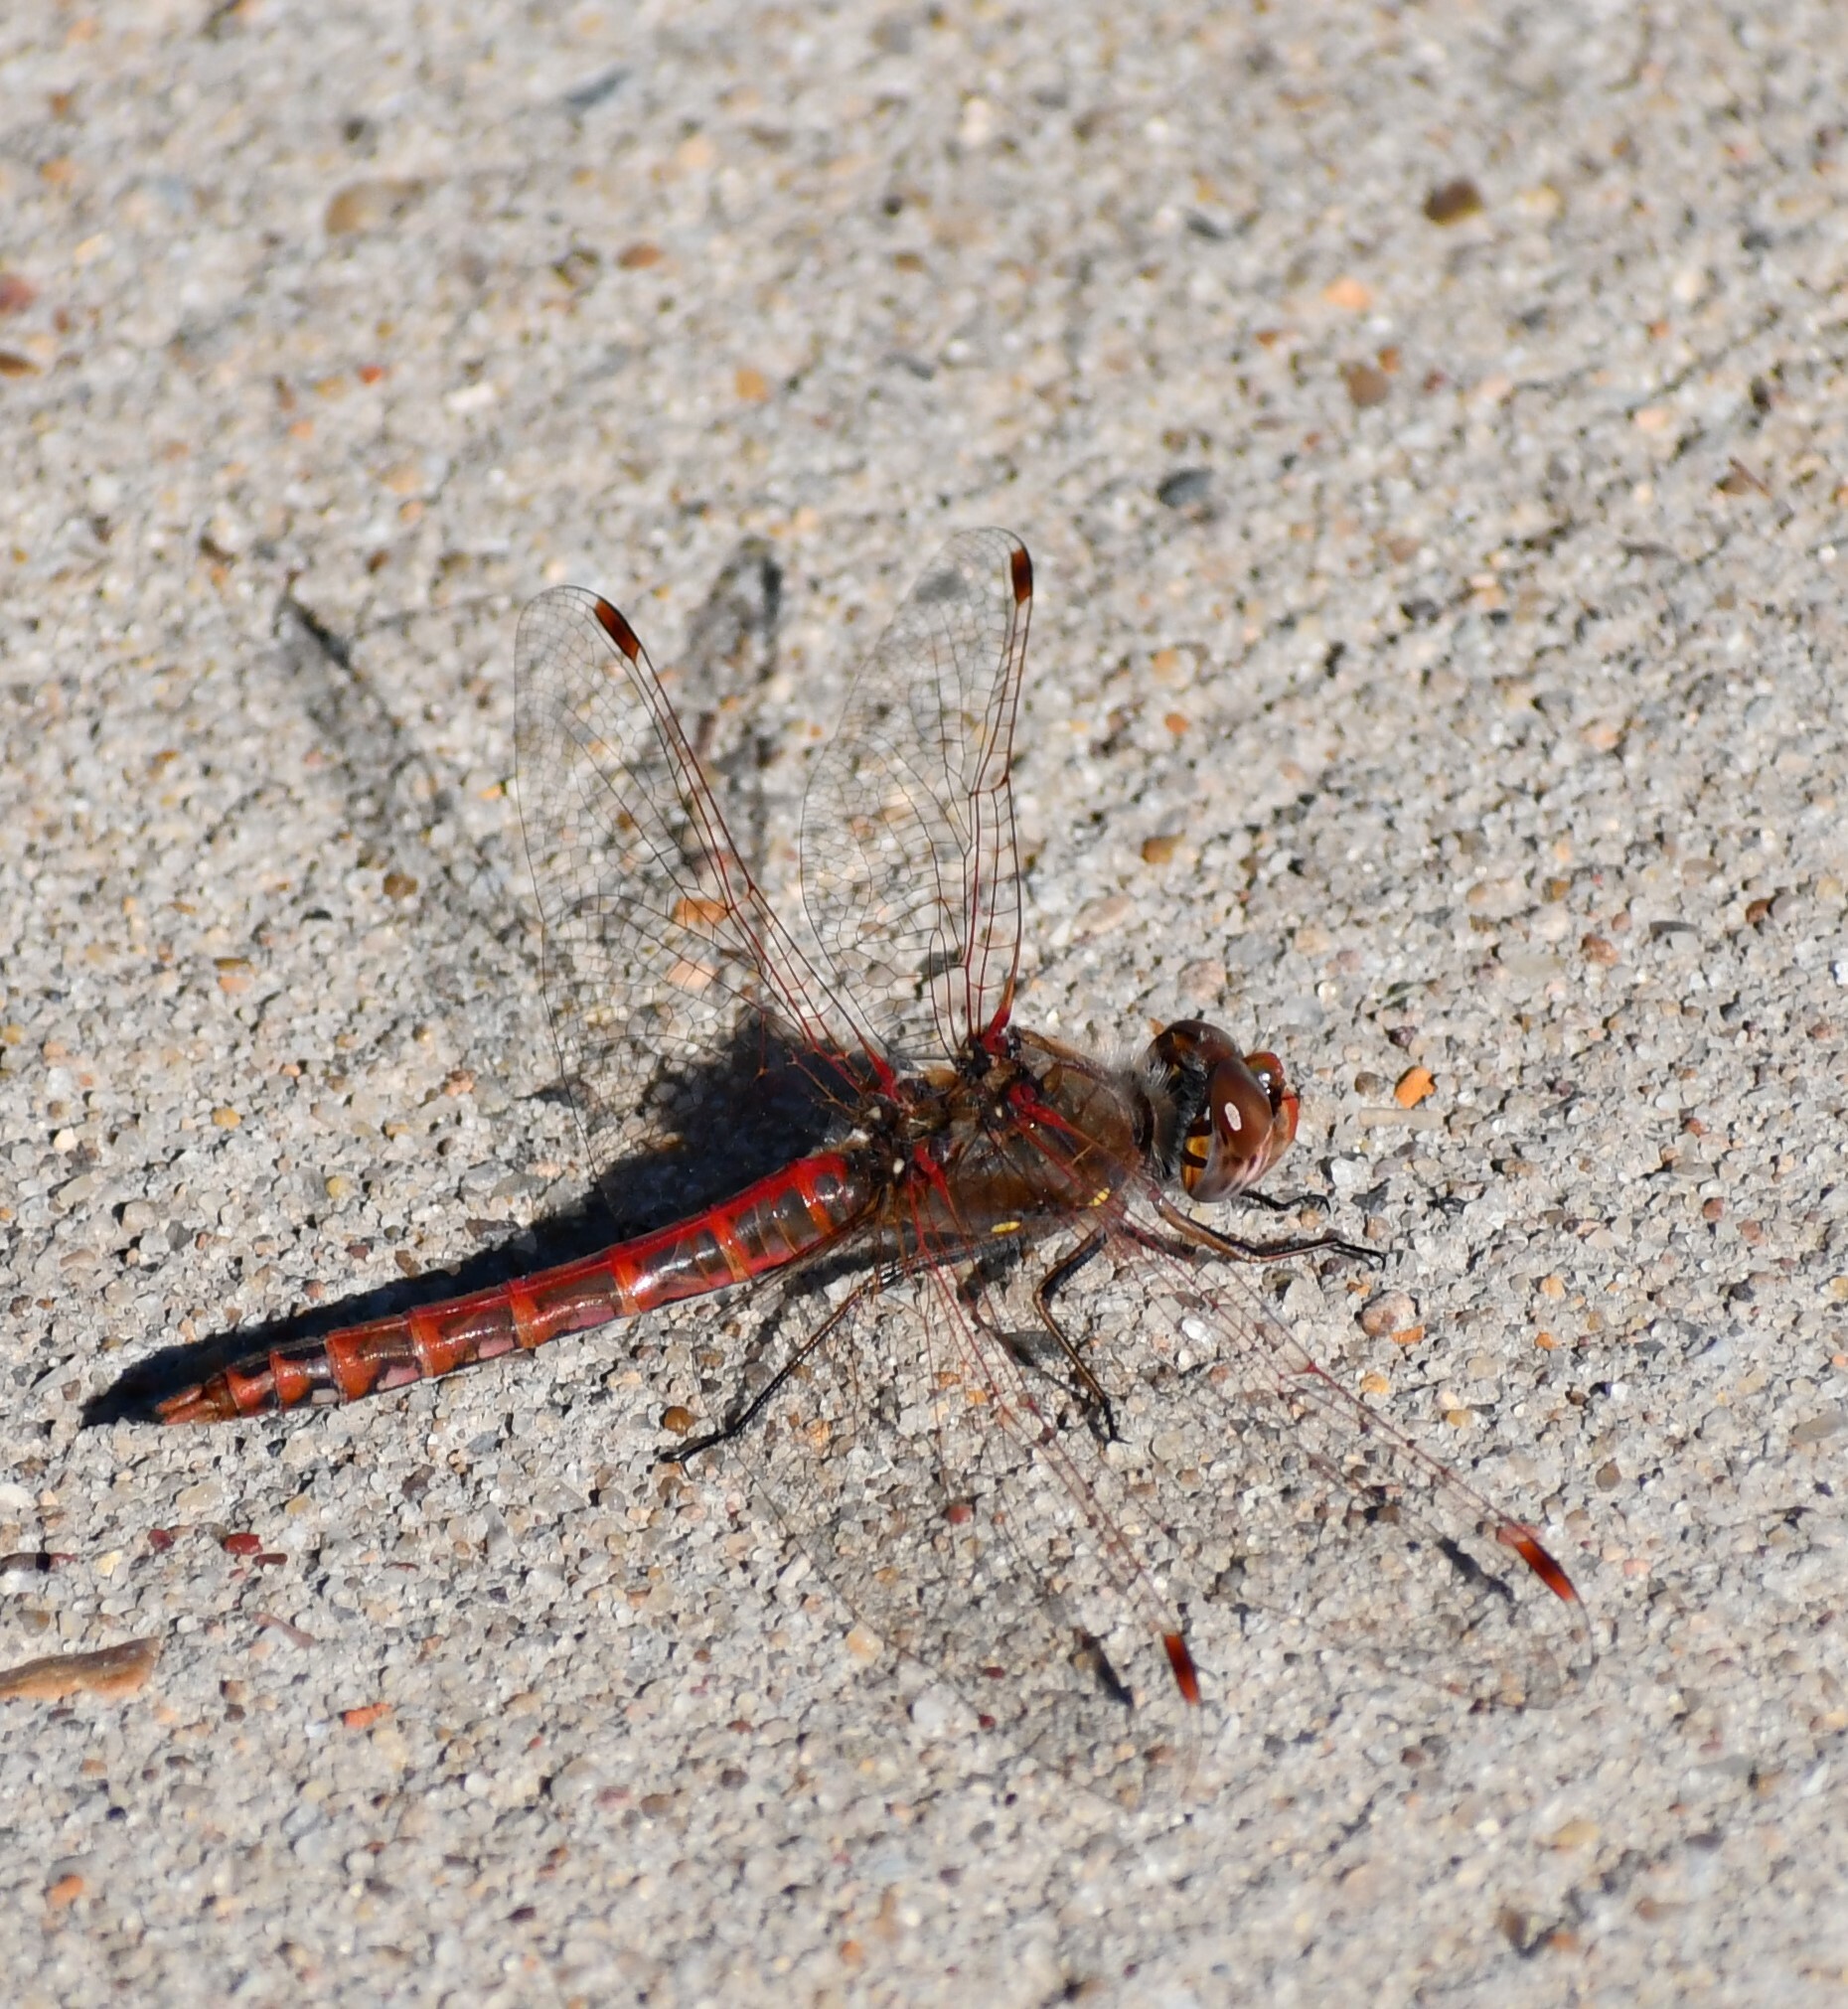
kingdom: Animalia
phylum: Arthropoda
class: Insecta
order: Odonata
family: Libellulidae
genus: Sympetrum
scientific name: Sympetrum corruptum
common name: Variegated meadowhawk
